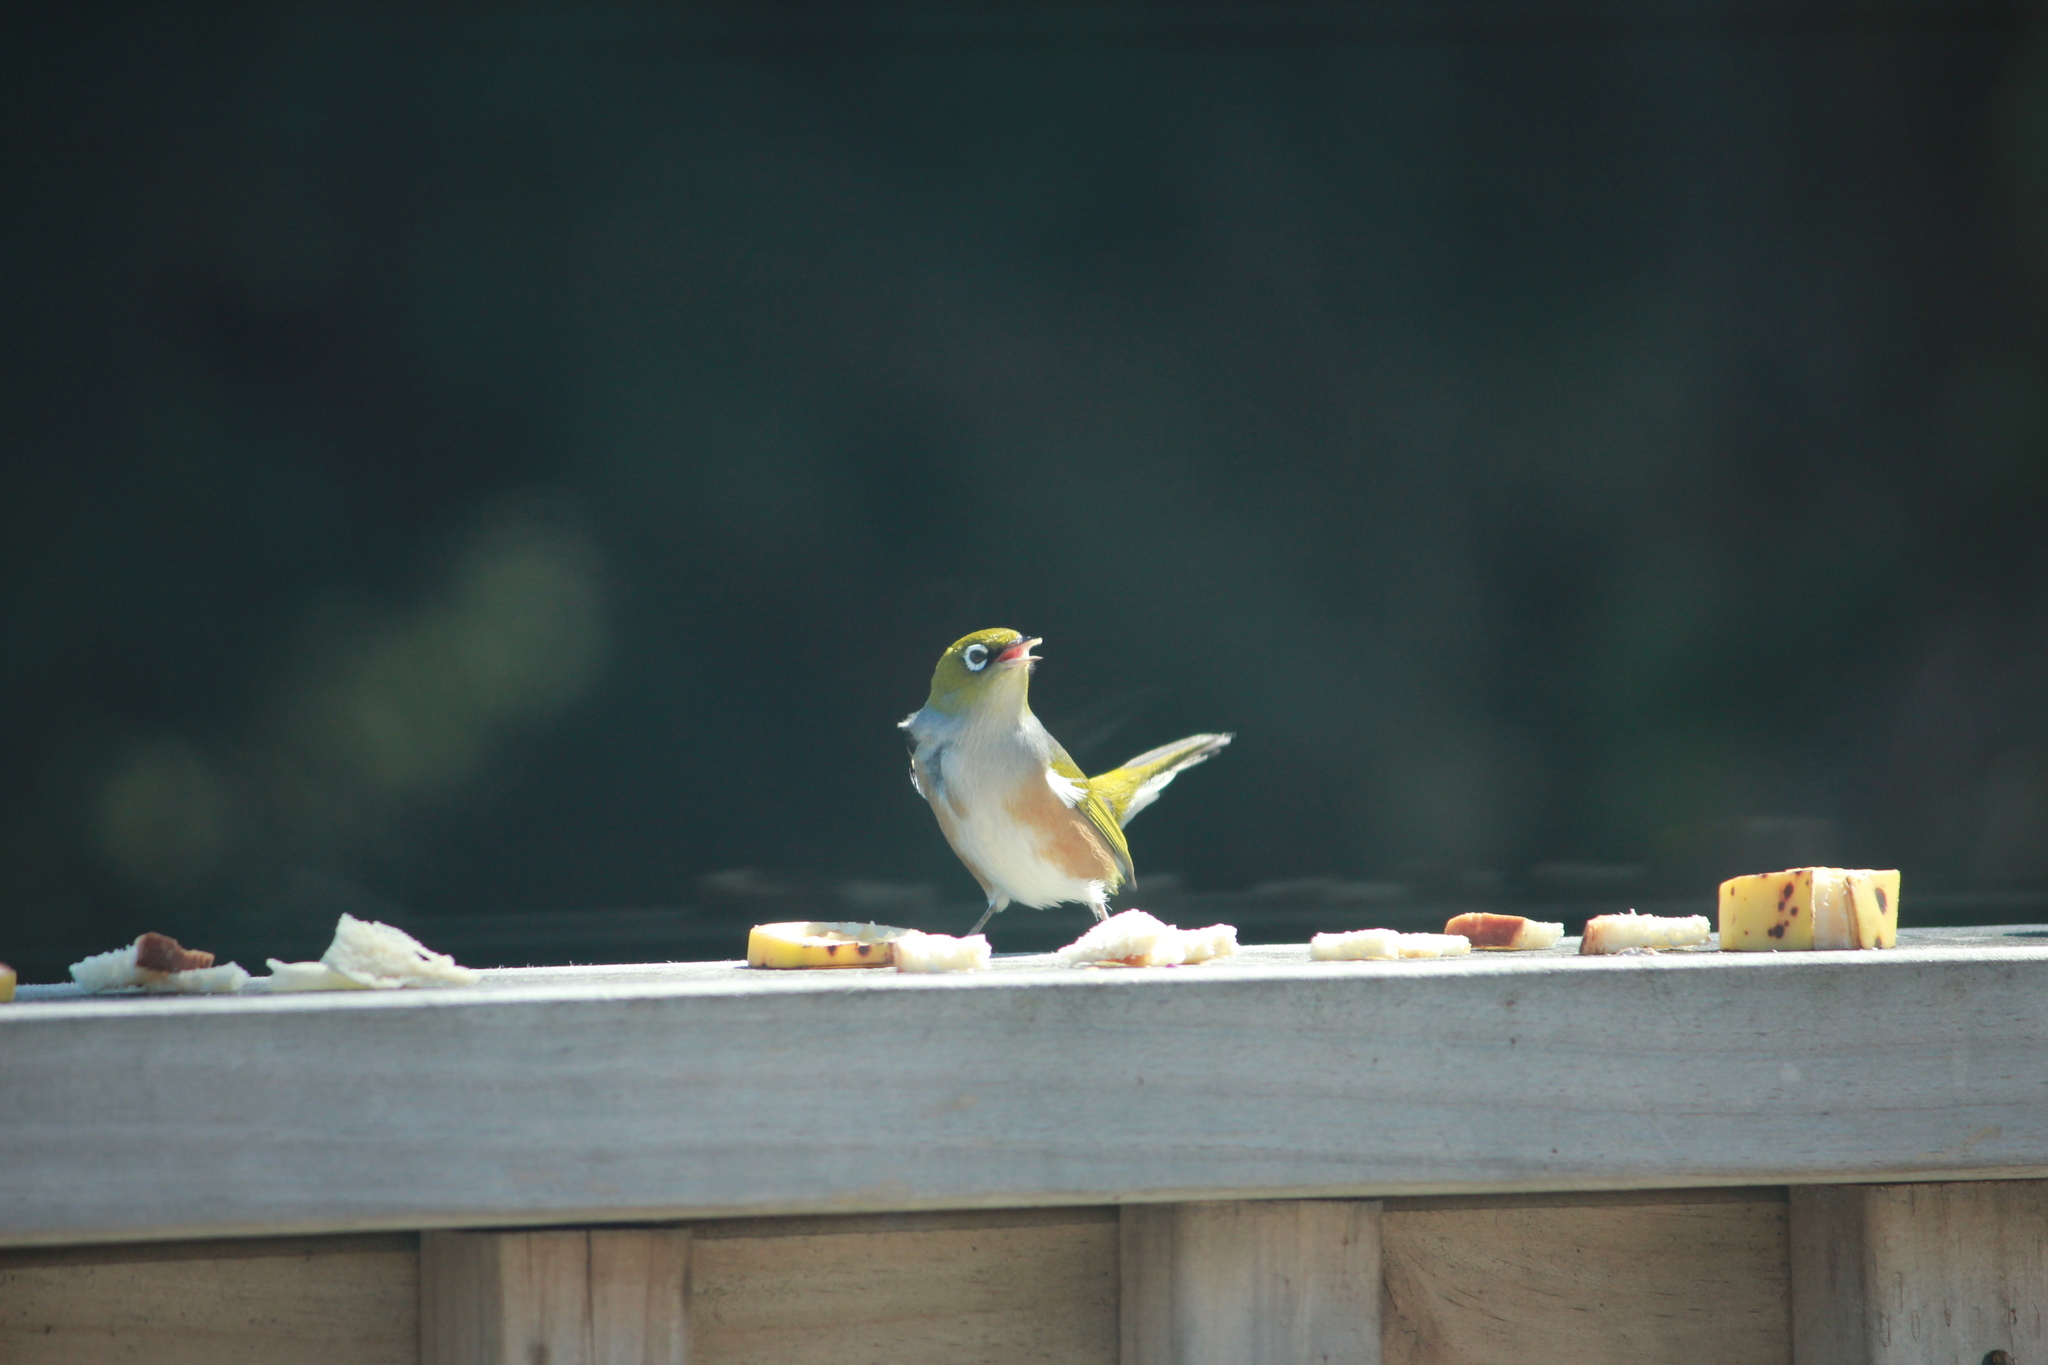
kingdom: Animalia
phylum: Chordata
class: Aves
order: Passeriformes
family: Zosteropidae
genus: Zosterops
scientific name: Zosterops lateralis
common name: Silvereye
